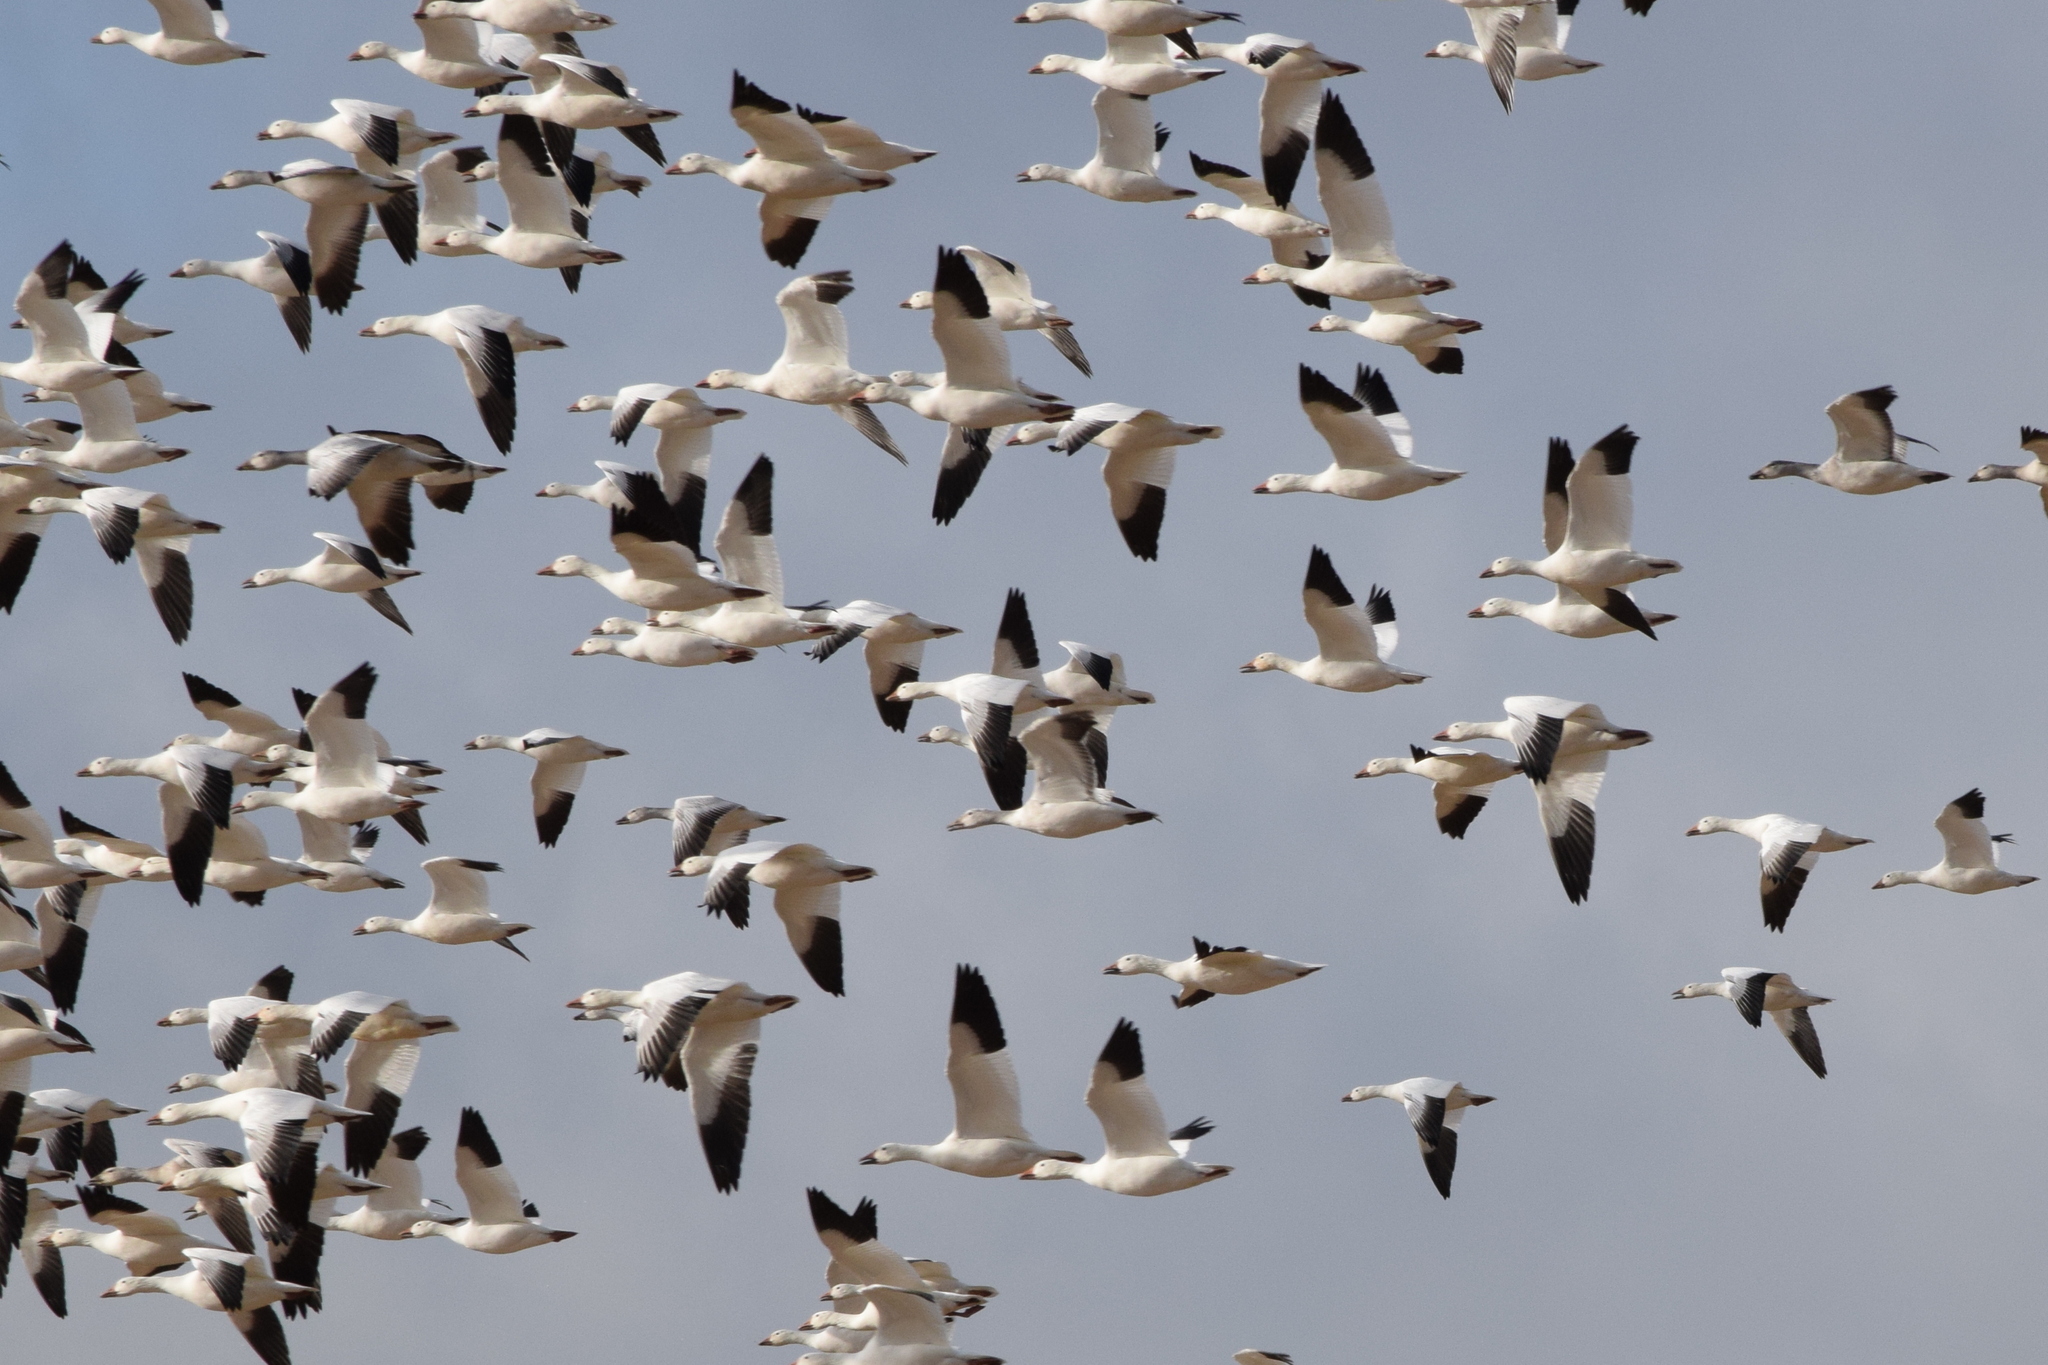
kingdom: Animalia
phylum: Chordata
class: Aves
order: Anseriformes
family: Anatidae
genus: Anser
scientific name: Anser caerulescens
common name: Snow goose
